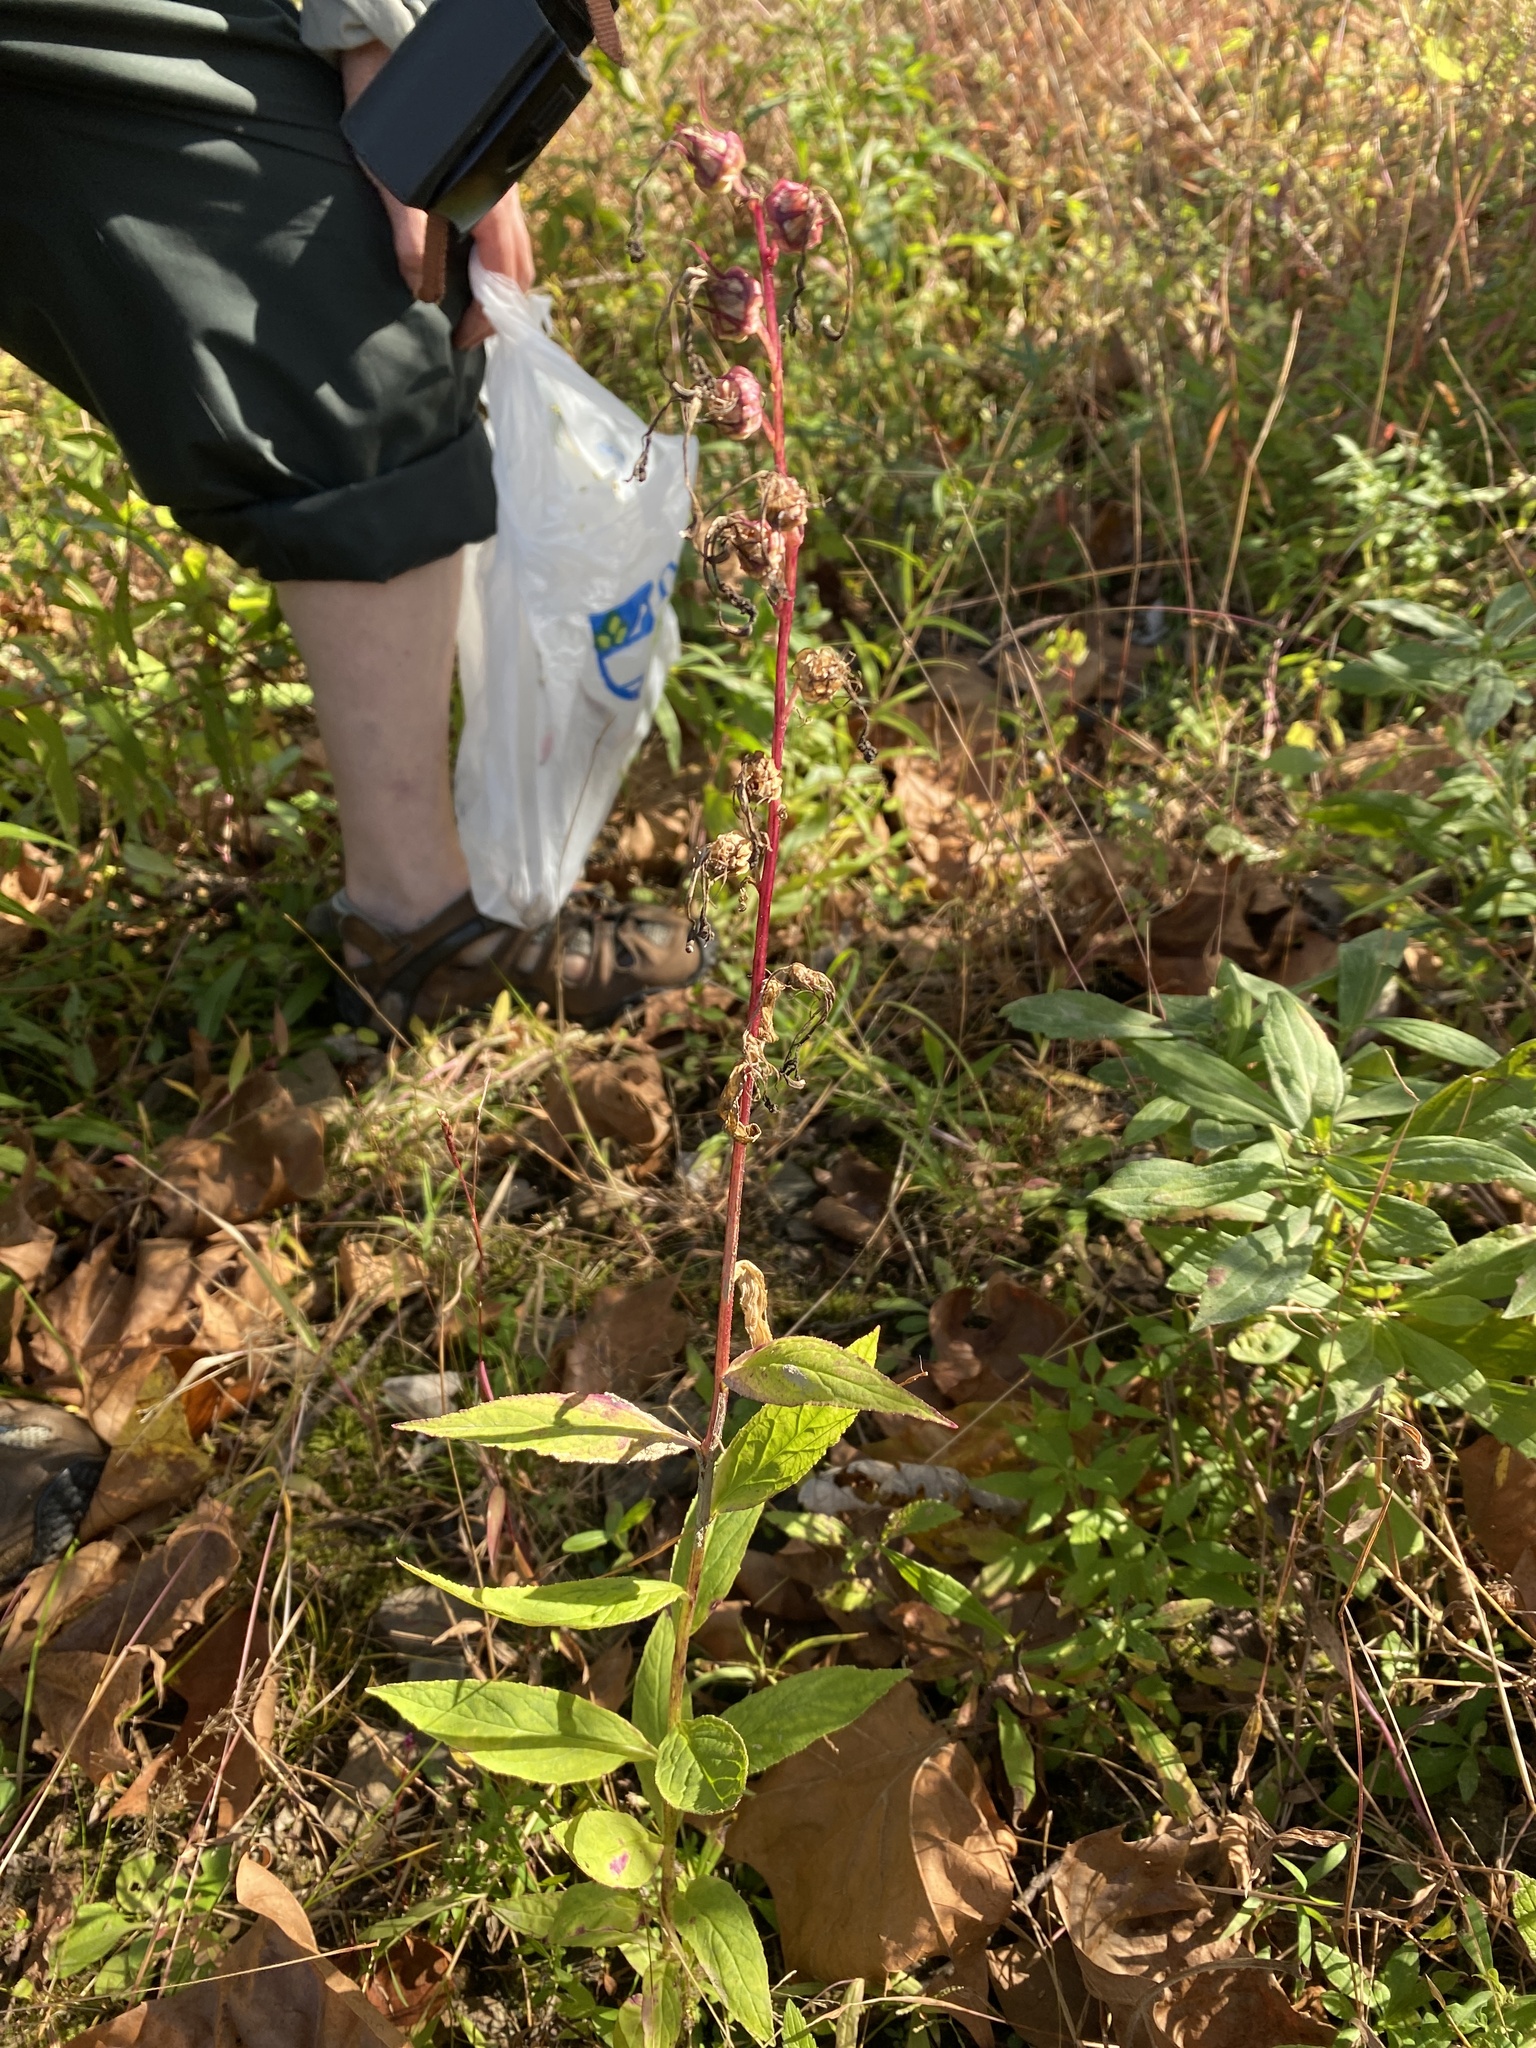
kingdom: Plantae
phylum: Tracheophyta
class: Magnoliopsida
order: Asterales
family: Campanulaceae
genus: Lobelia
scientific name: Lobelia cardinalis
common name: Cardinal flower
